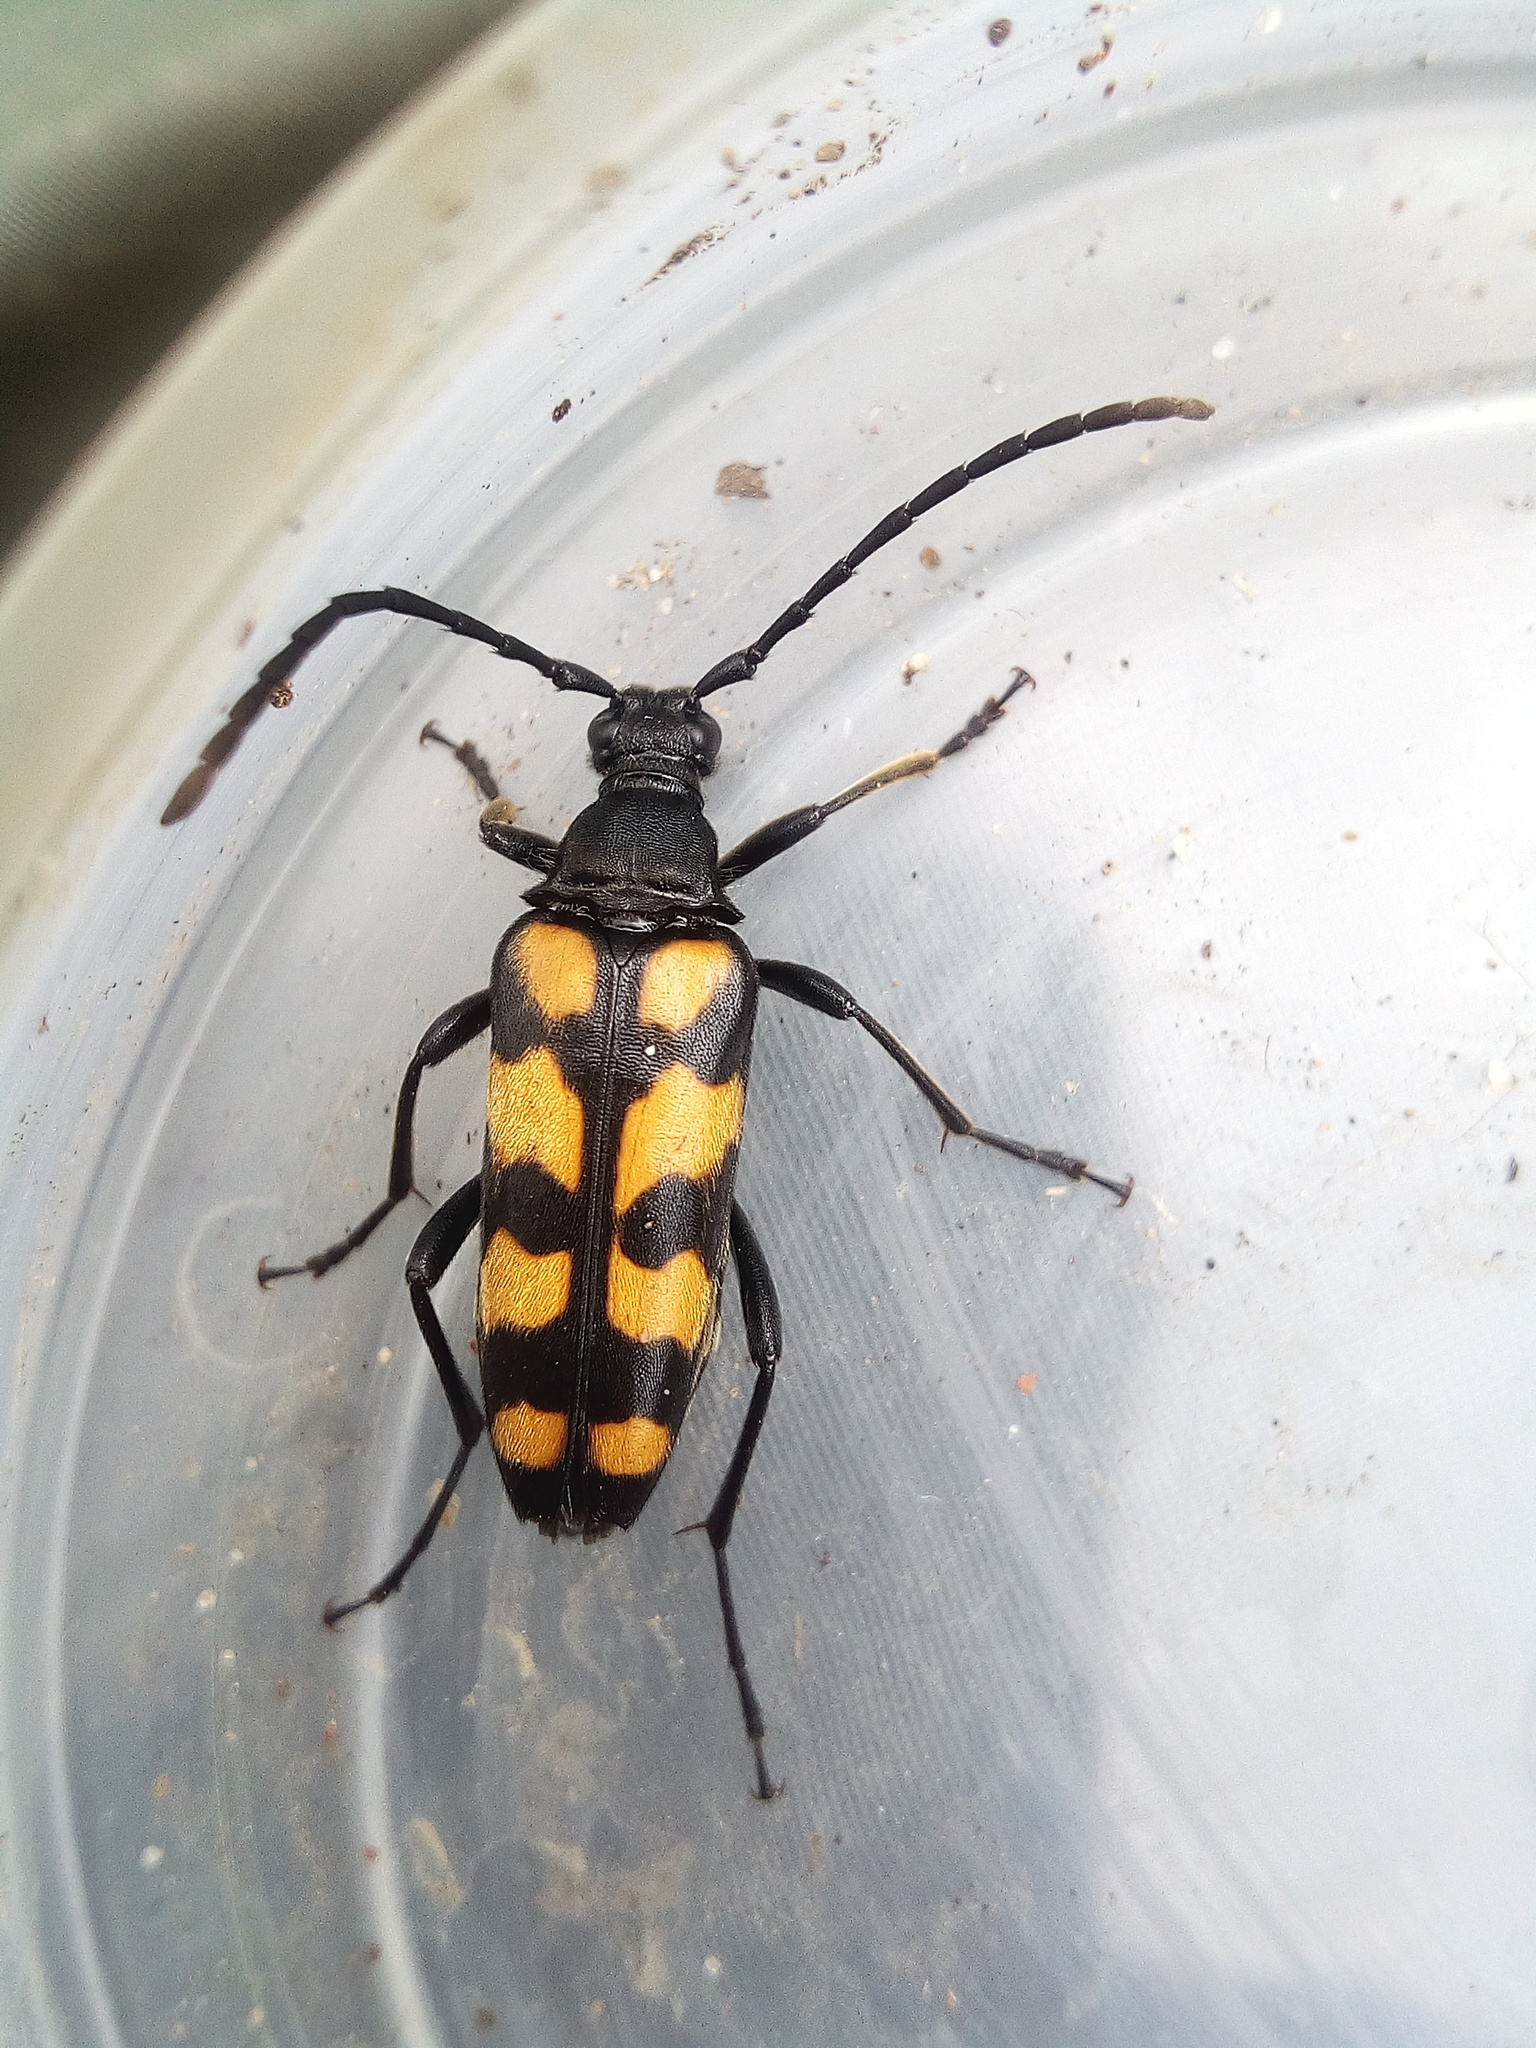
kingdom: Animalia
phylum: Arthropoda
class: Insecta
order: Coleoptera
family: Cerambycidae
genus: Leptura
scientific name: Leptura quadrifasciata
